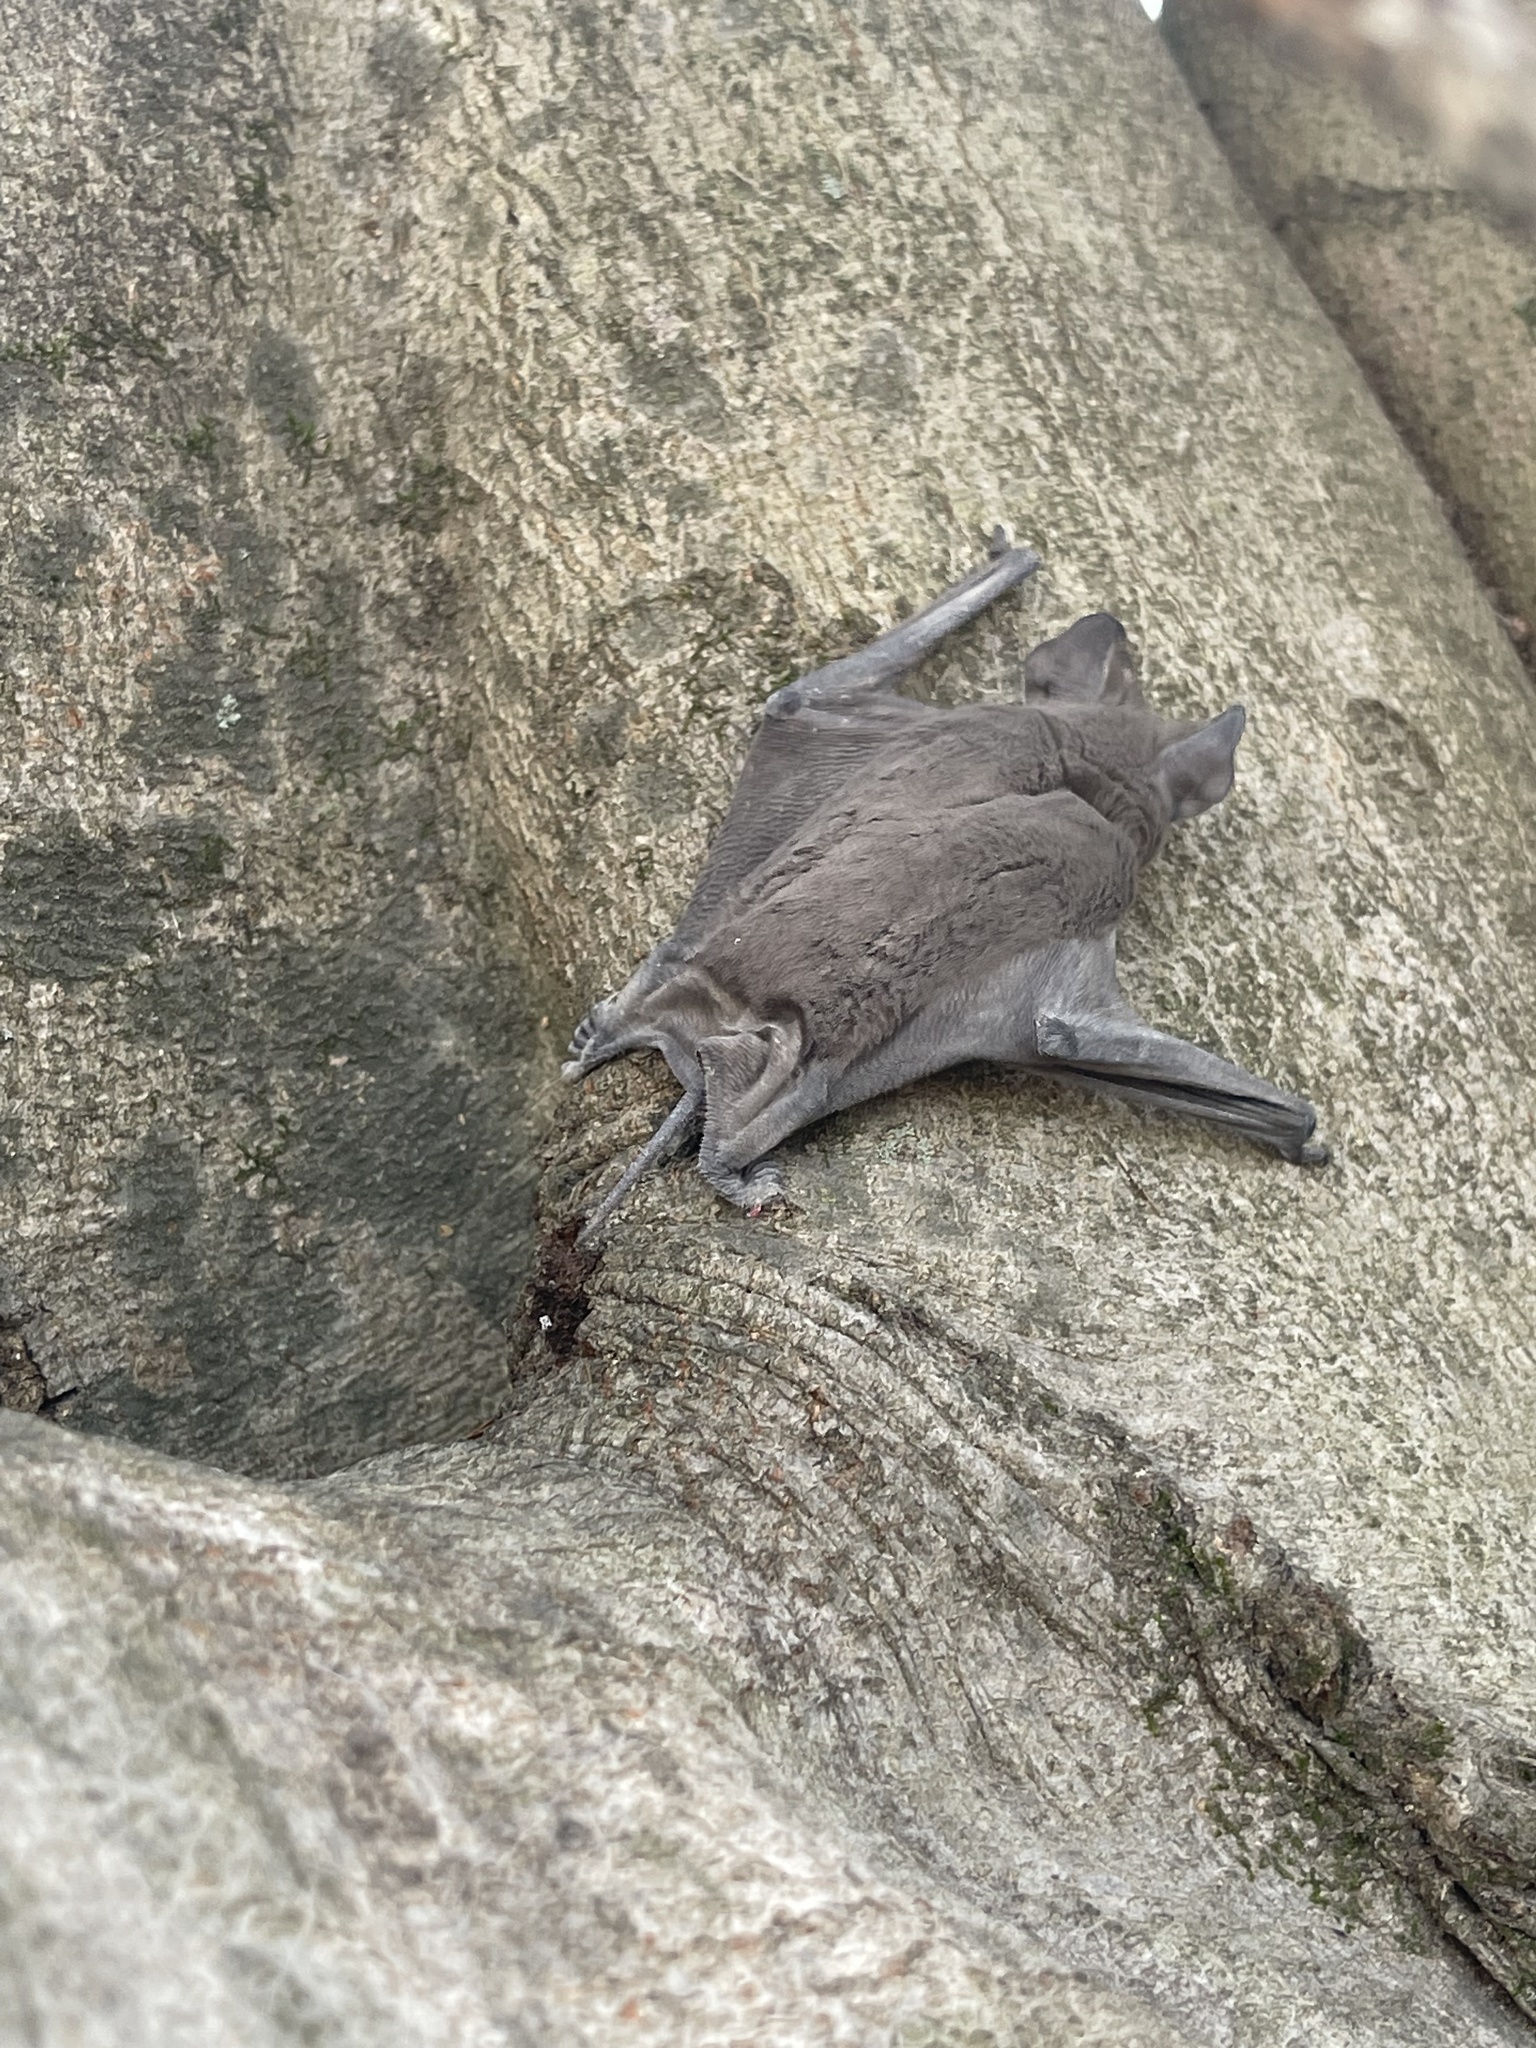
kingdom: Animalia
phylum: Chordata
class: Mammalia
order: Chiroptera
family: Molossidae
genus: Tadarida
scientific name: Tadarida brasiliensis
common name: Mexican free-tailed bat
